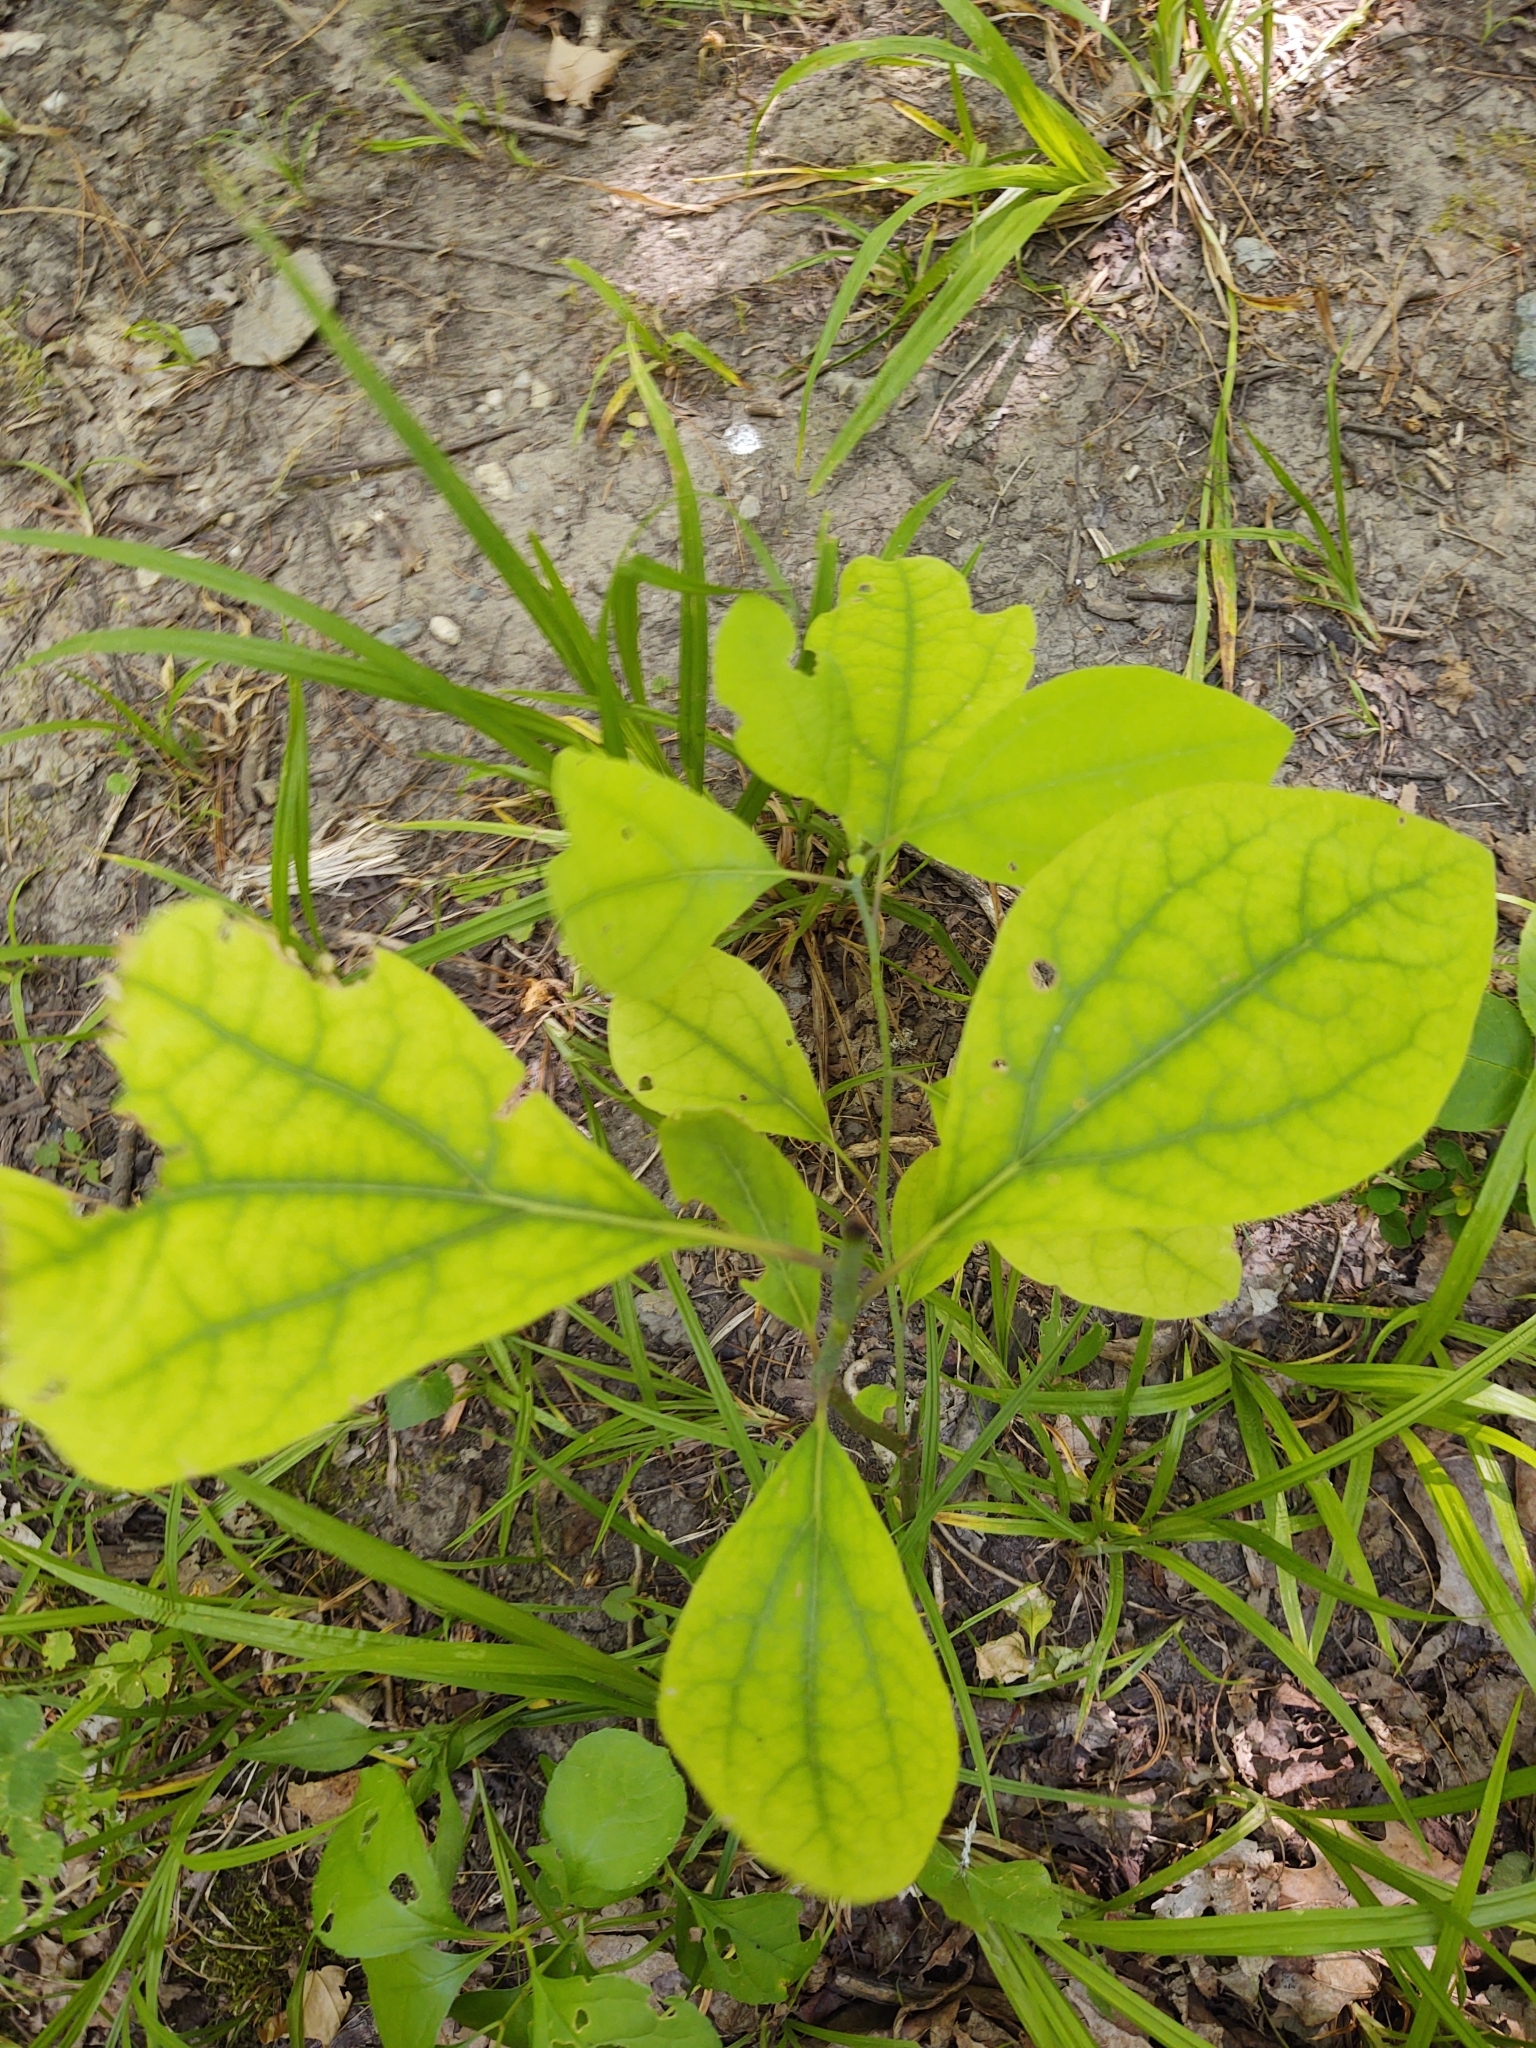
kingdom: Plantae
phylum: Tracheophyta
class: Magnoliopsida
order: Laurales
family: Lauraceae
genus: Sassafras
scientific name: Sassafras albidum
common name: Sassafras
